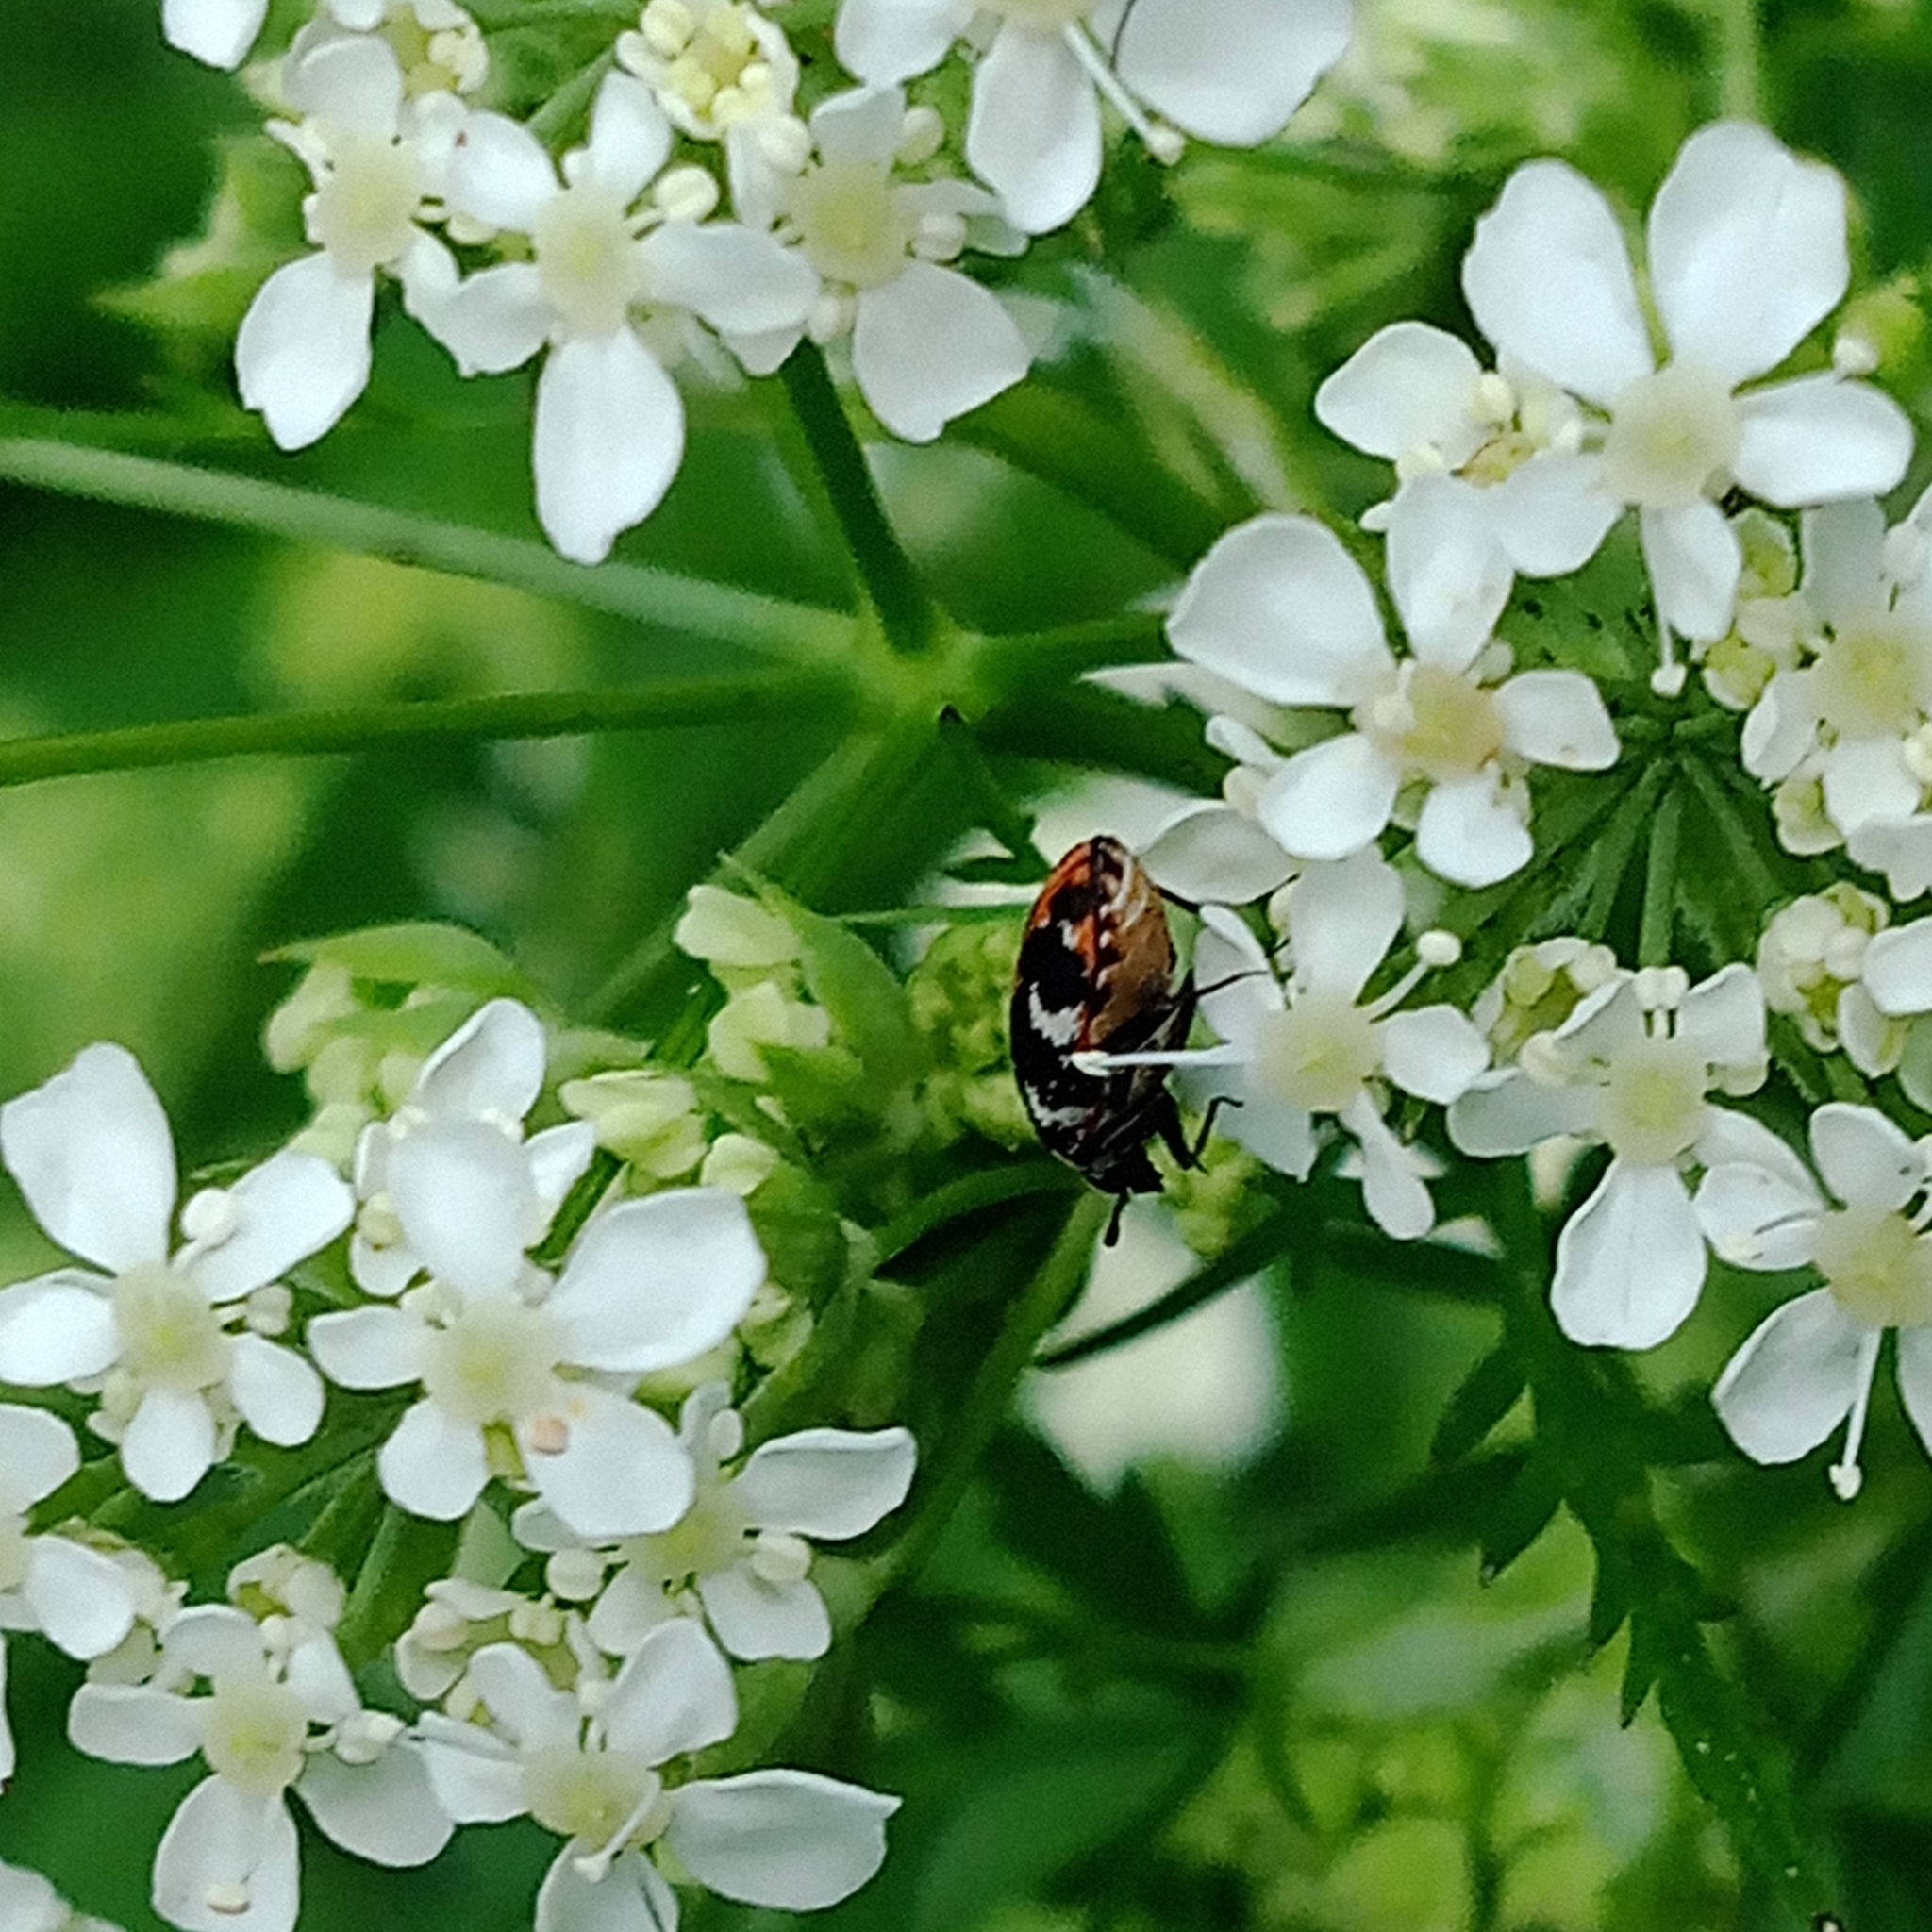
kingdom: Animalia
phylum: Arthropoda
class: Insecta
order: Coleoptera
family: Dermestidae
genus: Anthrenus
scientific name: Anthrenus scrophulariae
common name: Buffalo carpet beetle
